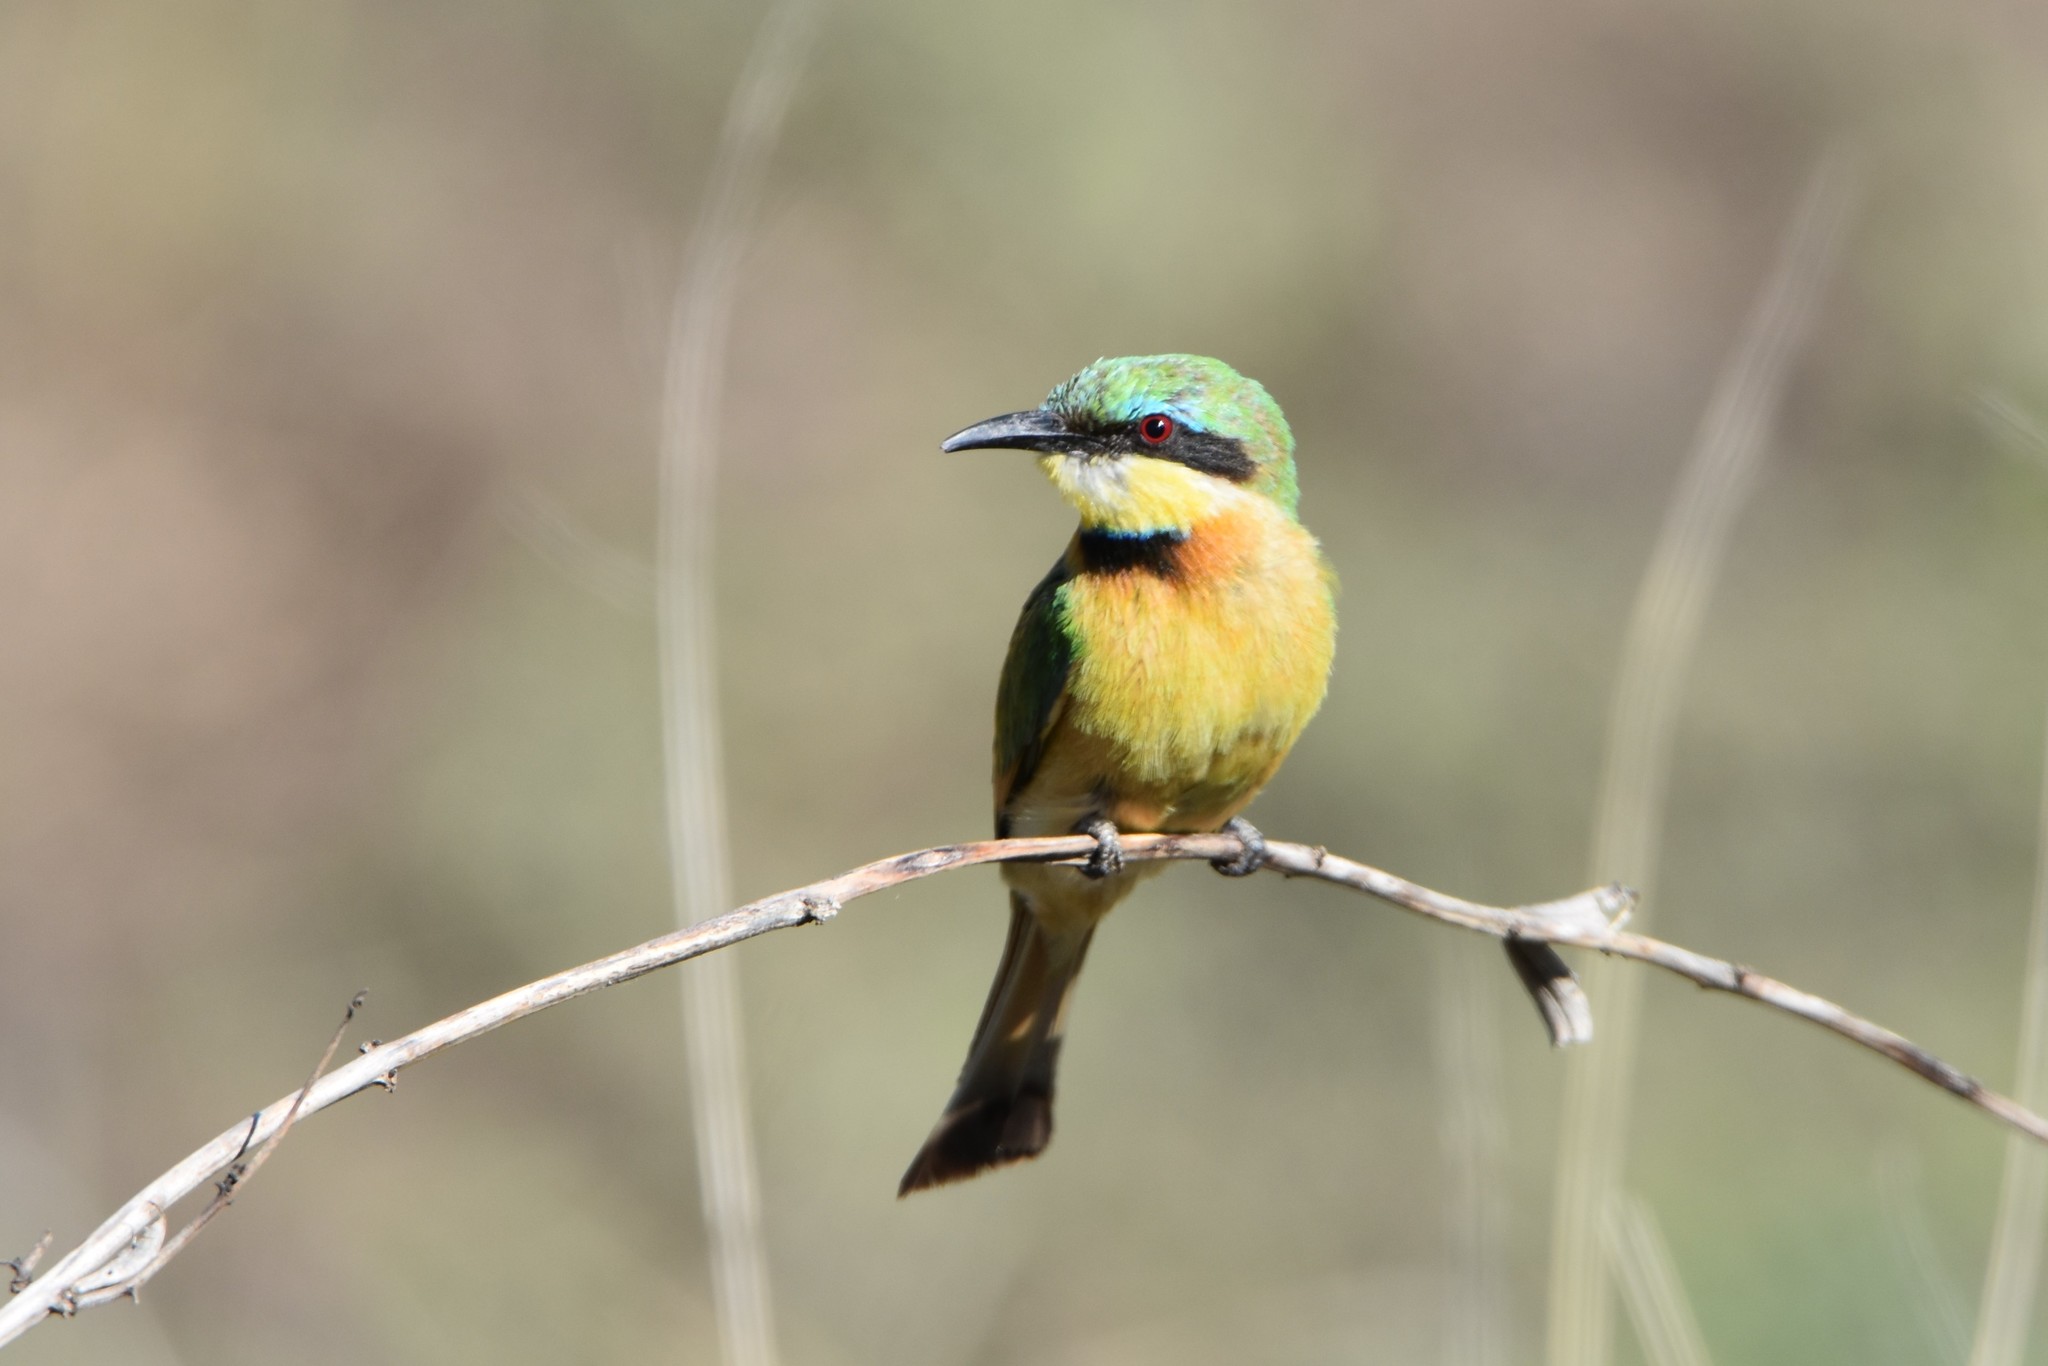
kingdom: Animalia
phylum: Chordata
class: Aves
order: Coraciiformes
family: Meropidae
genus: Merops
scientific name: Merops pusillus
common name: Little bee-eater
